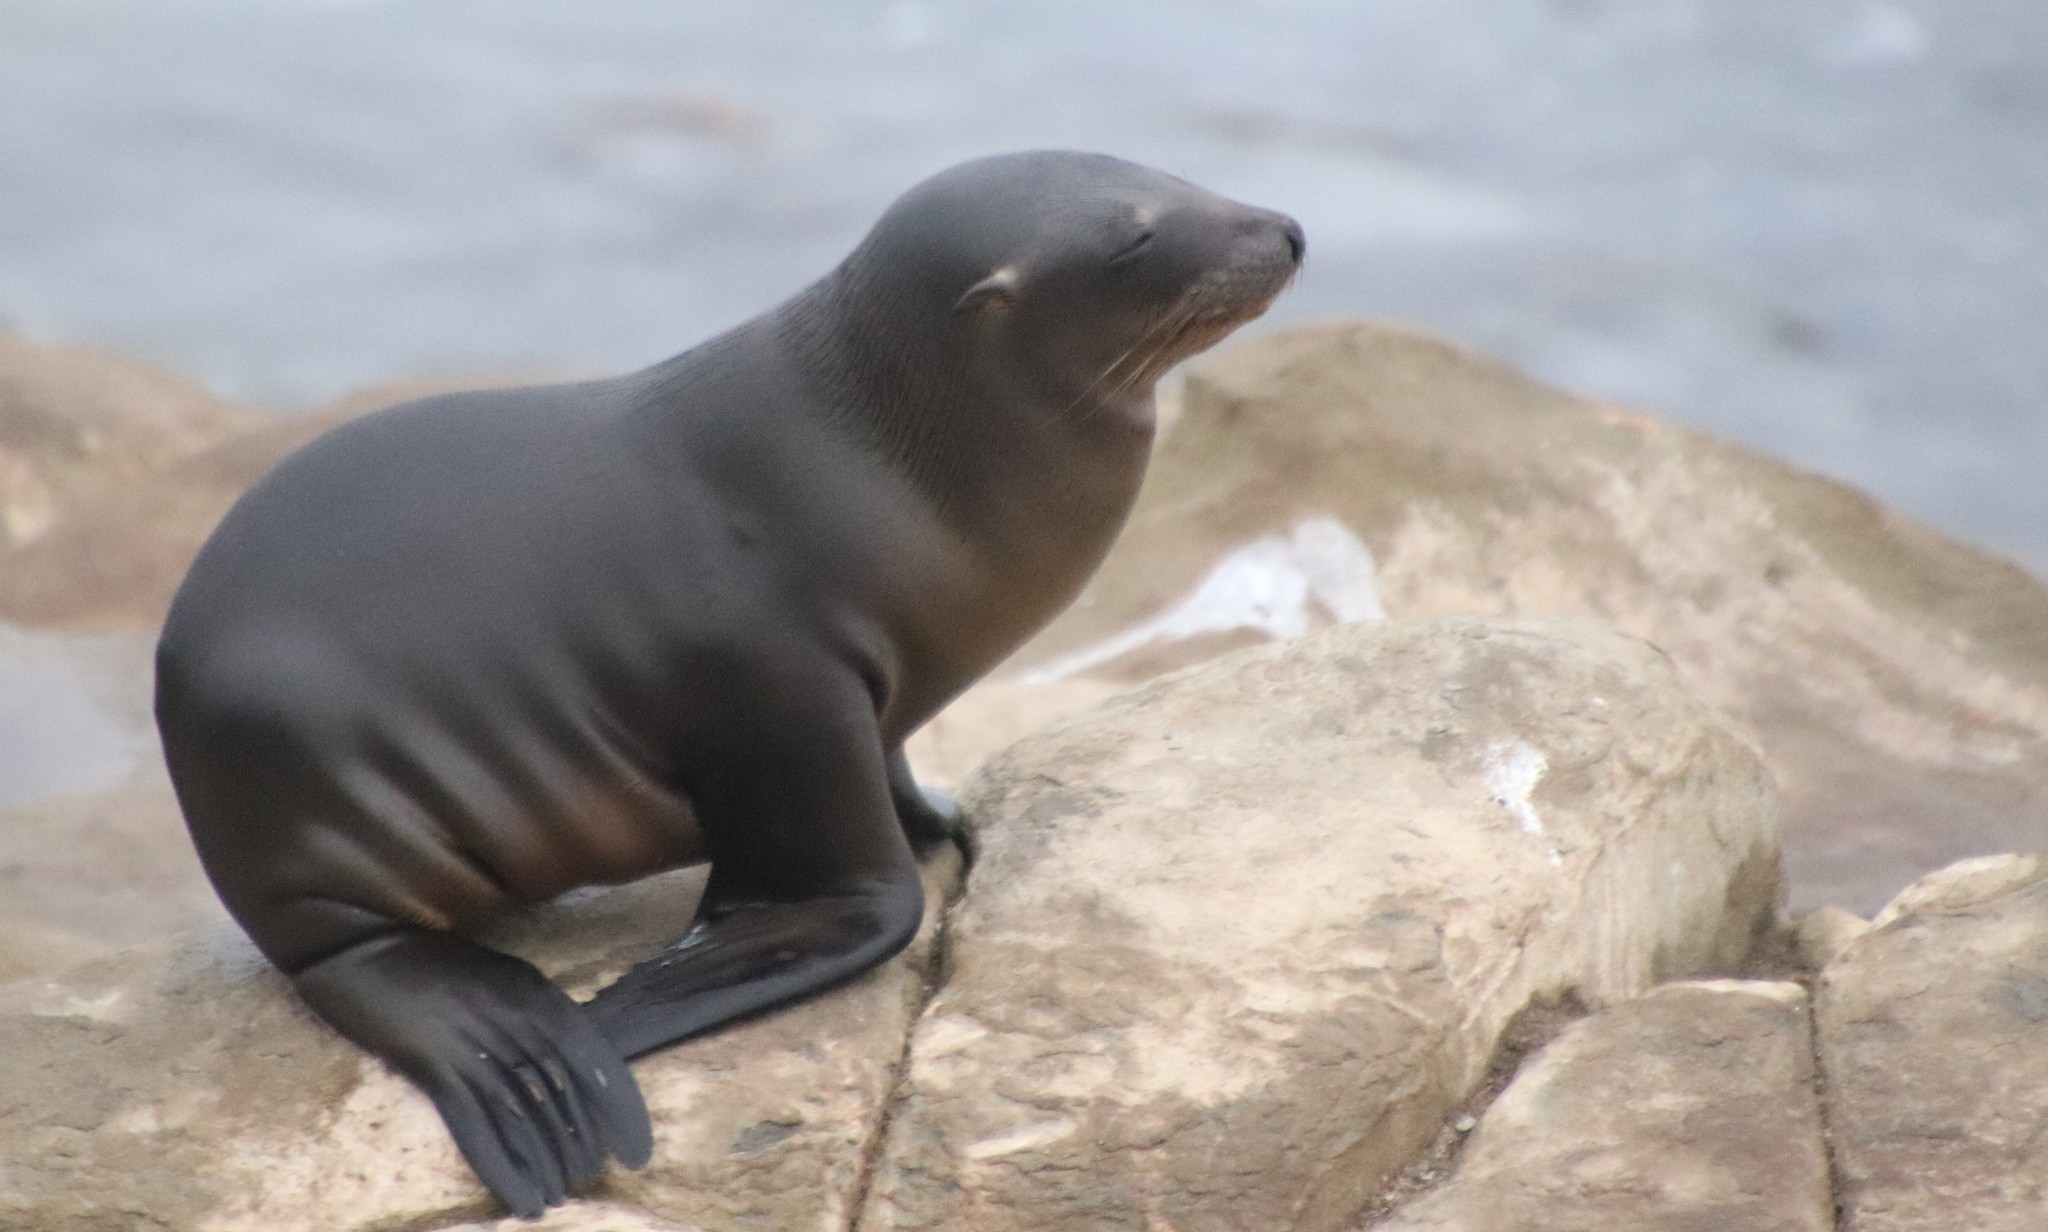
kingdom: Animalia
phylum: Chordata
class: Mammalia
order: Carnivora
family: Otariidae
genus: Zalophus
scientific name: Zalophus californianus
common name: California sea lion
